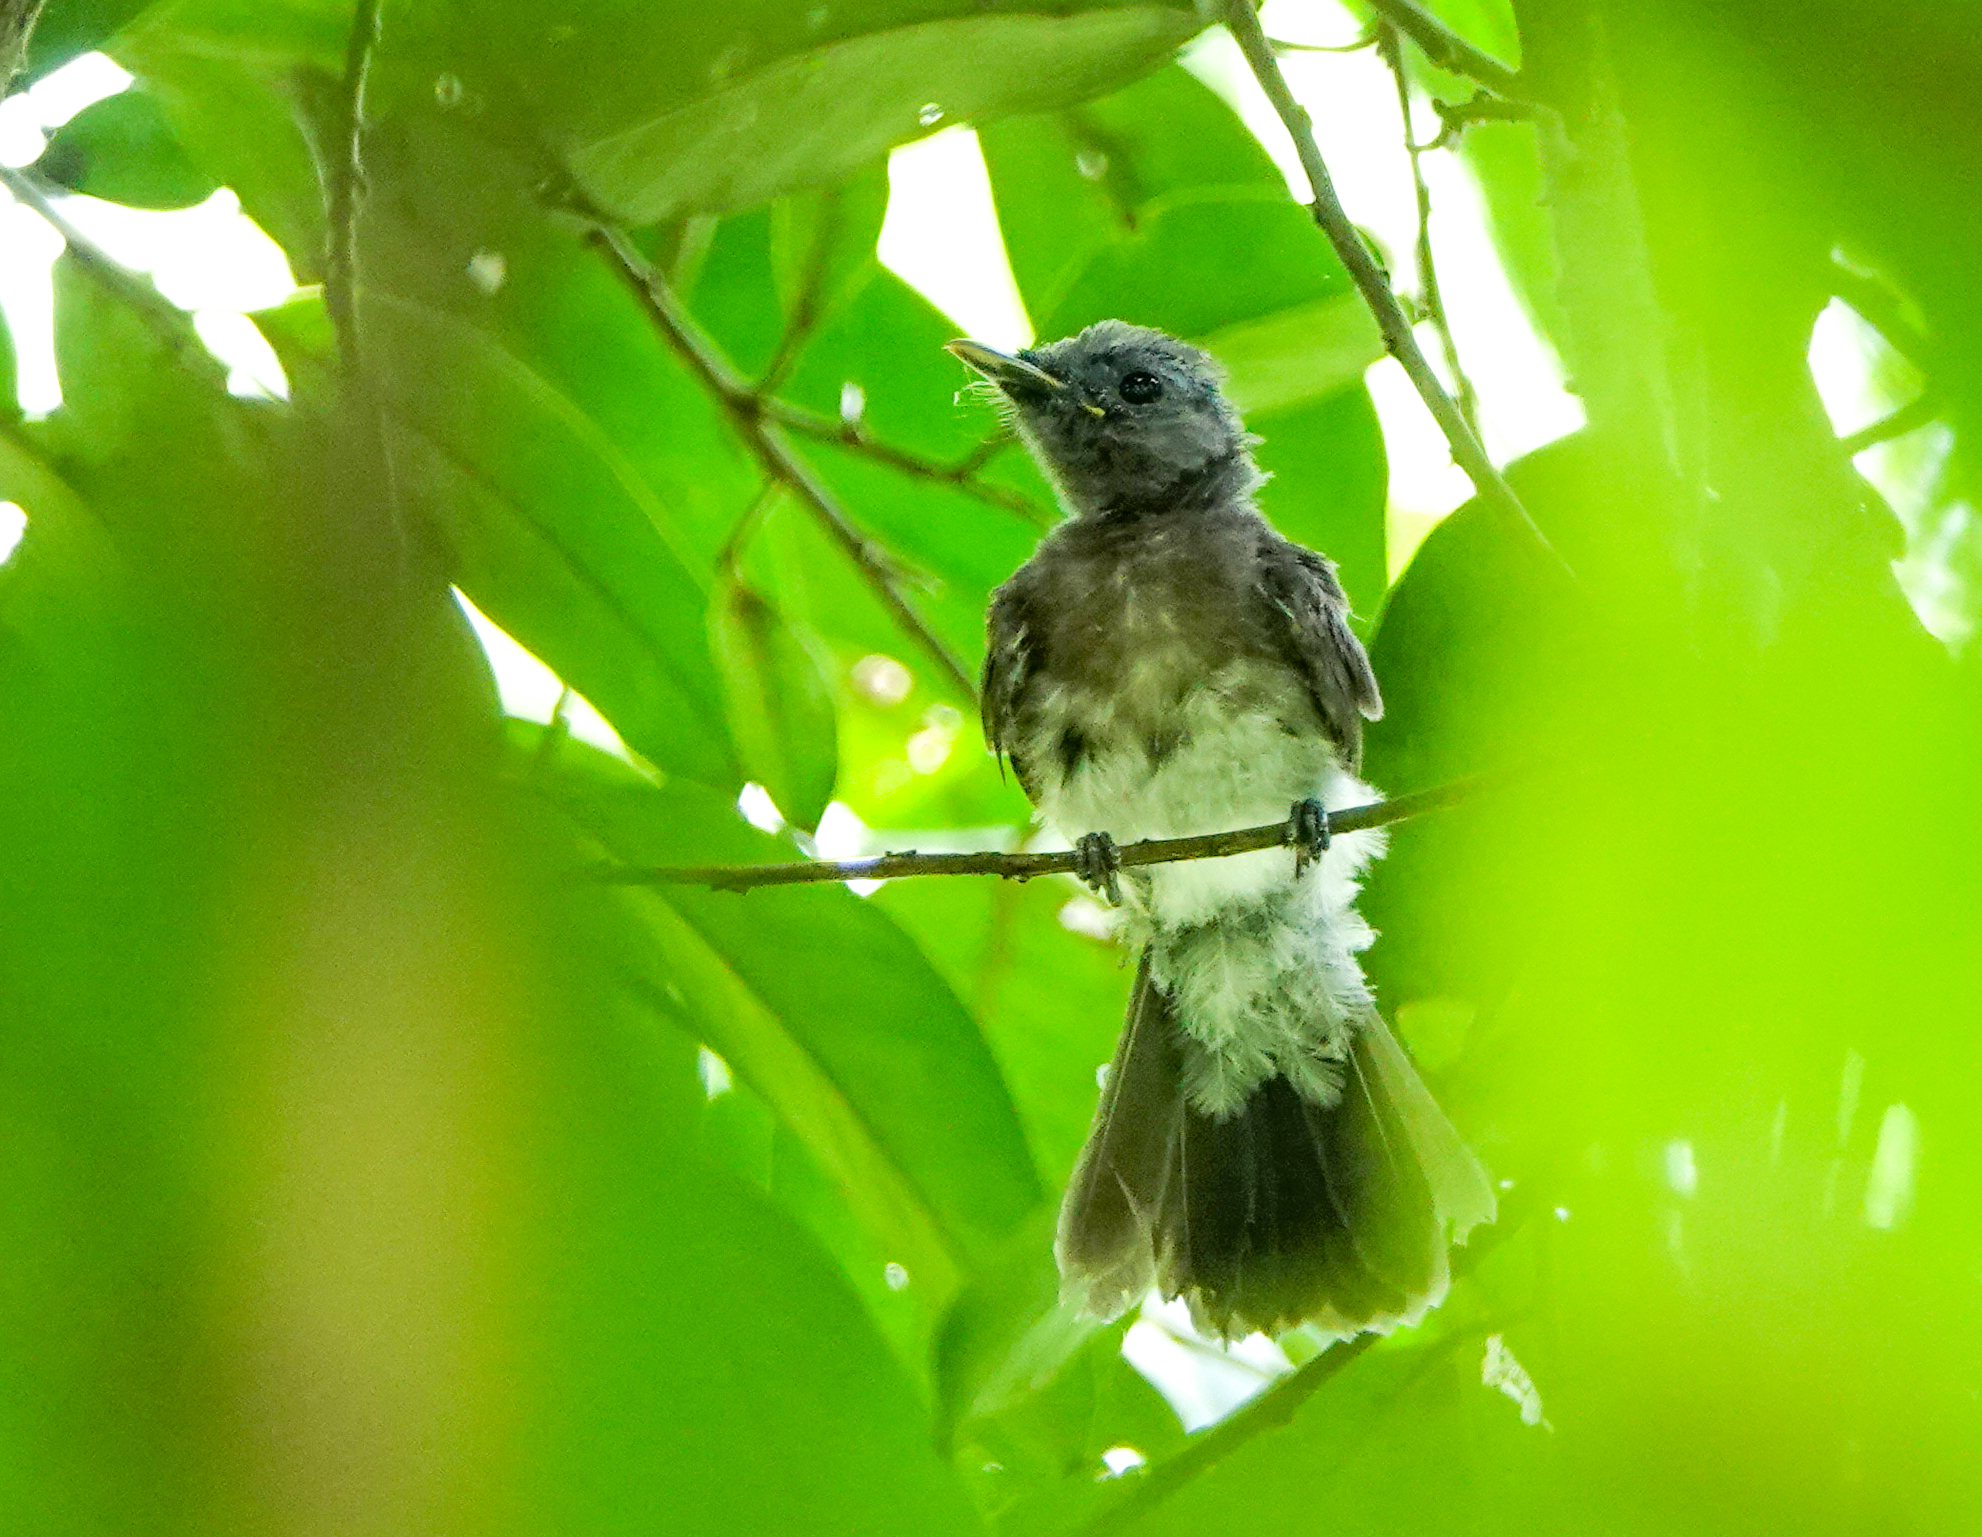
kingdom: Animalia
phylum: Chordata
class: Aves
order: Passeriformes
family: Monarchidae
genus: Hypothymis
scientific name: Hypothymis azurea
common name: Black-naped monarch
